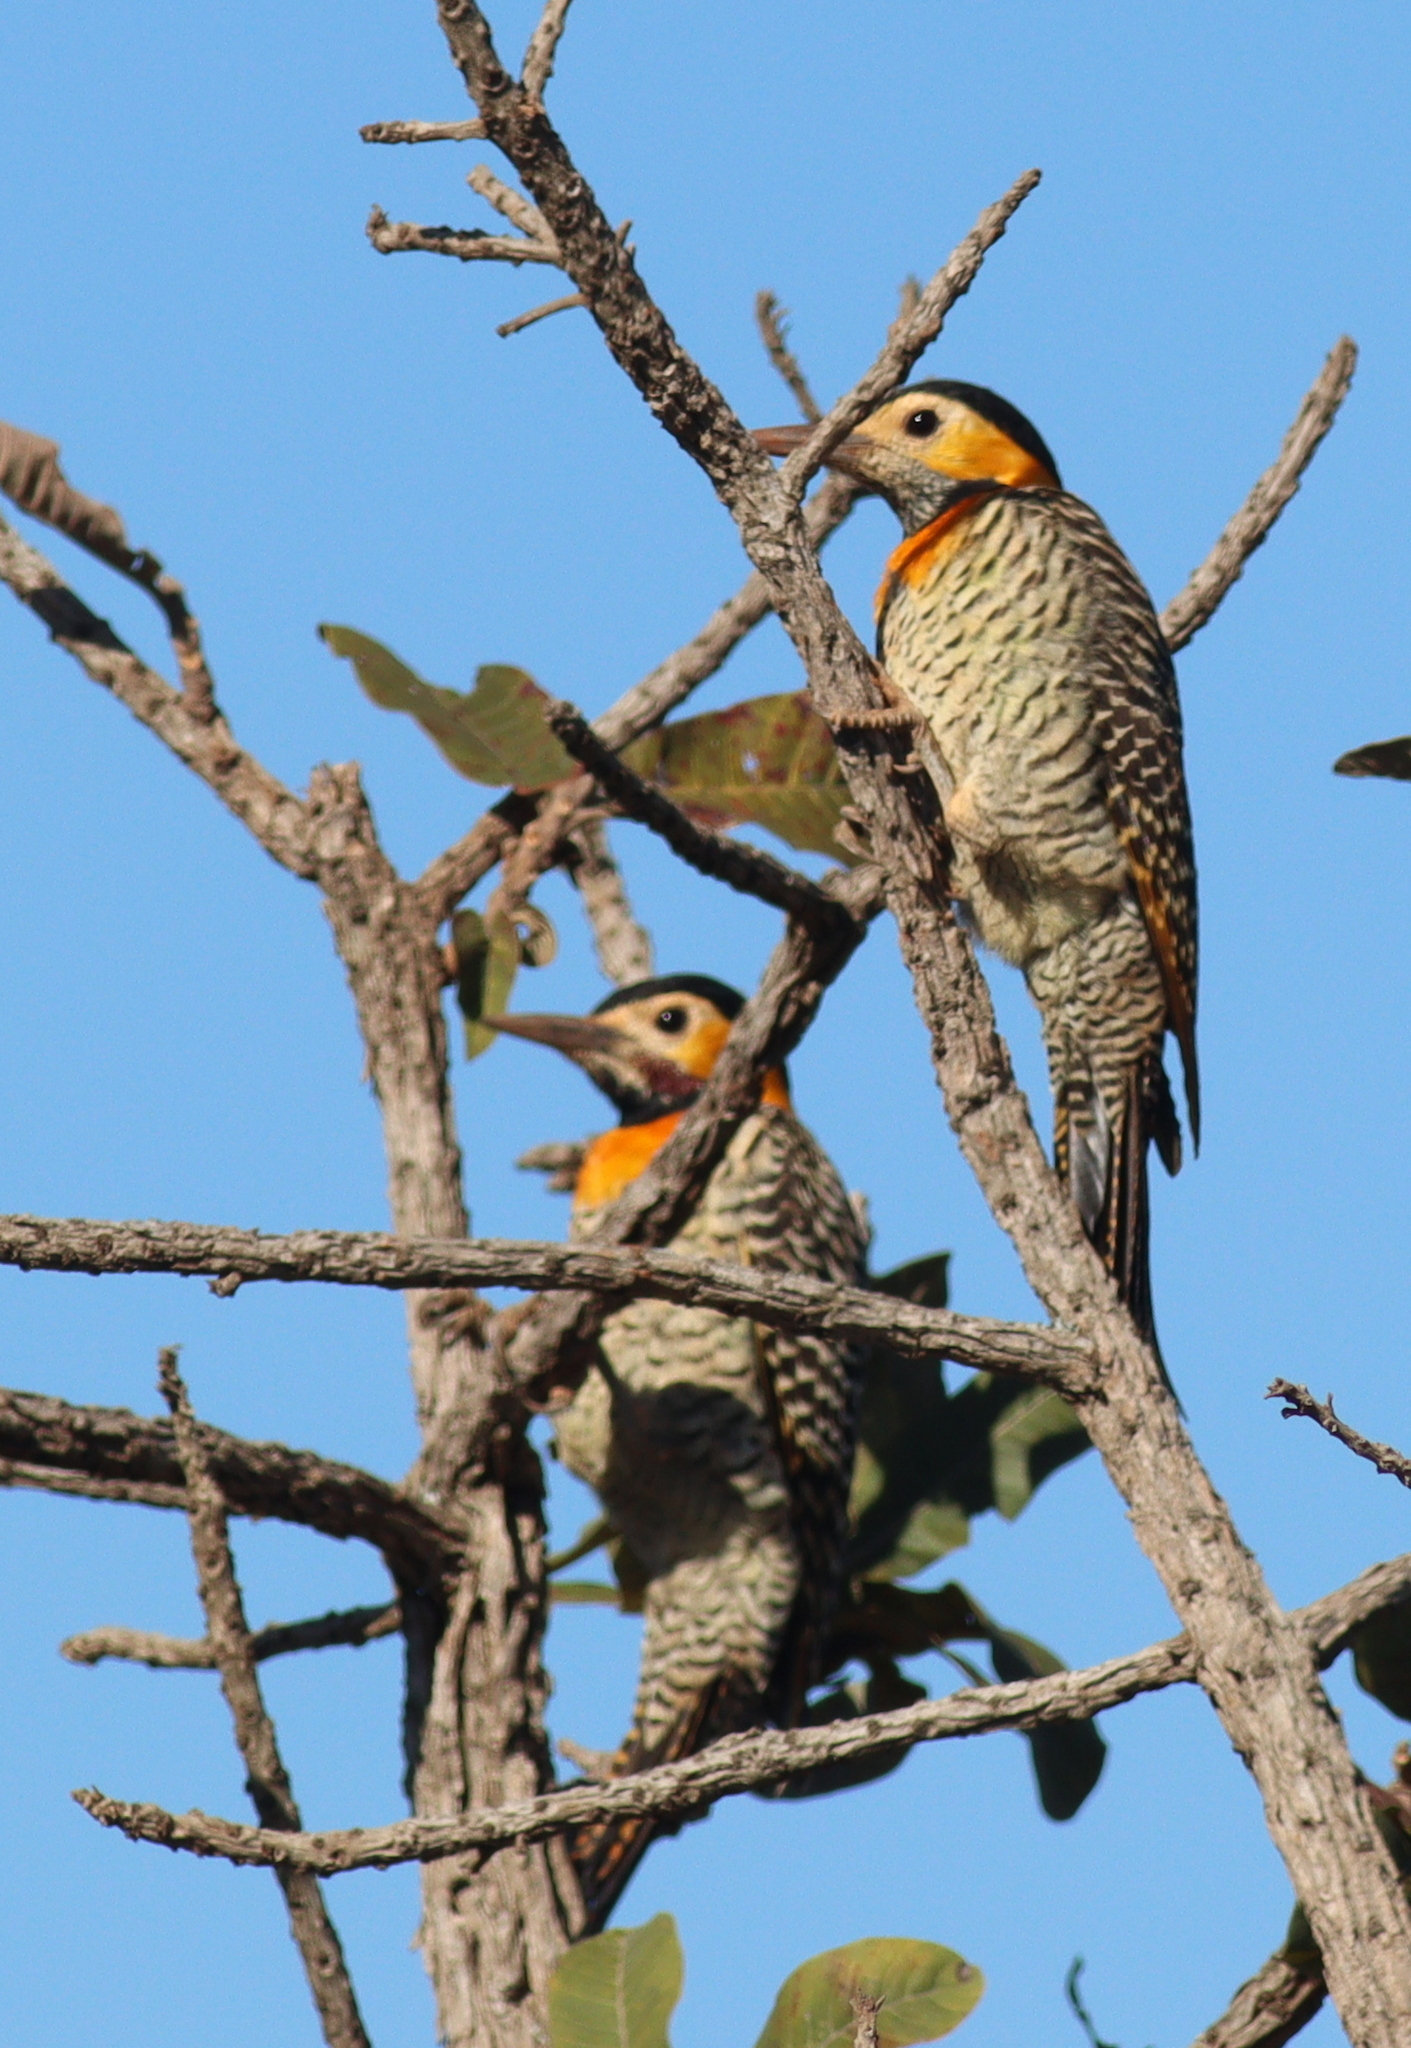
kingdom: Animalia
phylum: Chordata
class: Aves
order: Piciformes
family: Picidae
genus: Colaptes
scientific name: Colaptes campestris
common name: Campo flicker
